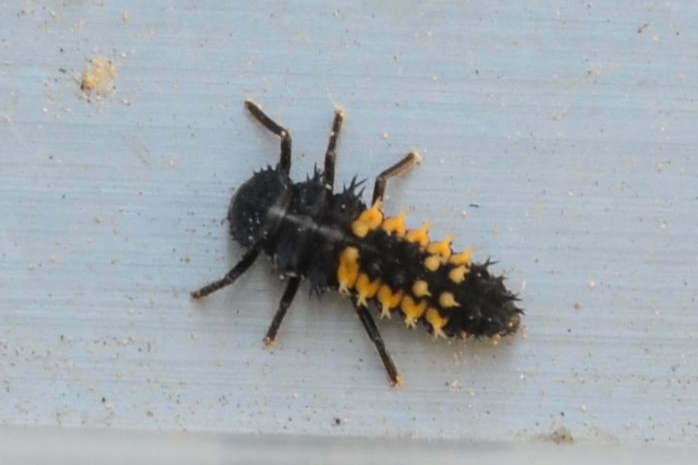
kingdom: Animalia
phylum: Arthropoda
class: Insecta
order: Coleoptera
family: Coccinellidae
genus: Harmonia
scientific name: Harmonia axyridis
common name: Harlequin ladybird
